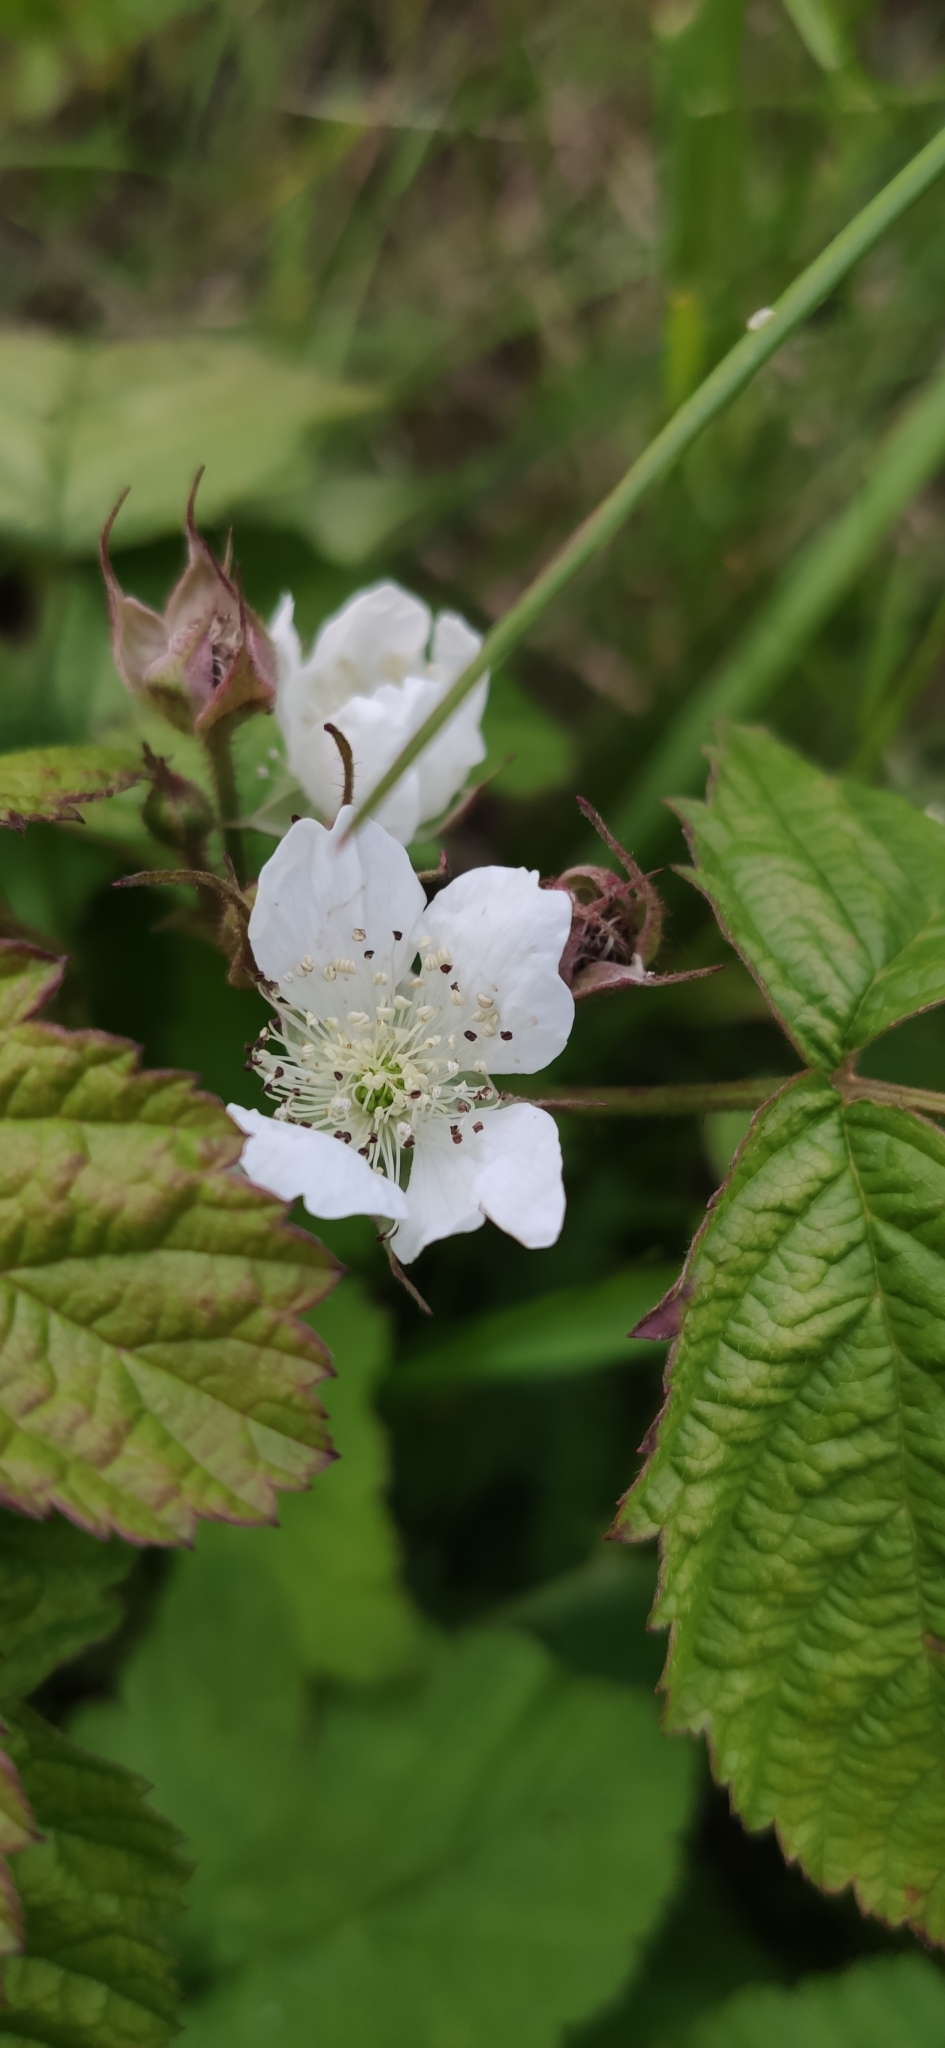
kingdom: Plantae
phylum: Tracheophyta
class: Magnoliopsida
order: Rosales
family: Rosaceae
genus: Rubus
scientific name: Rubus caesius
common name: Dewberry
